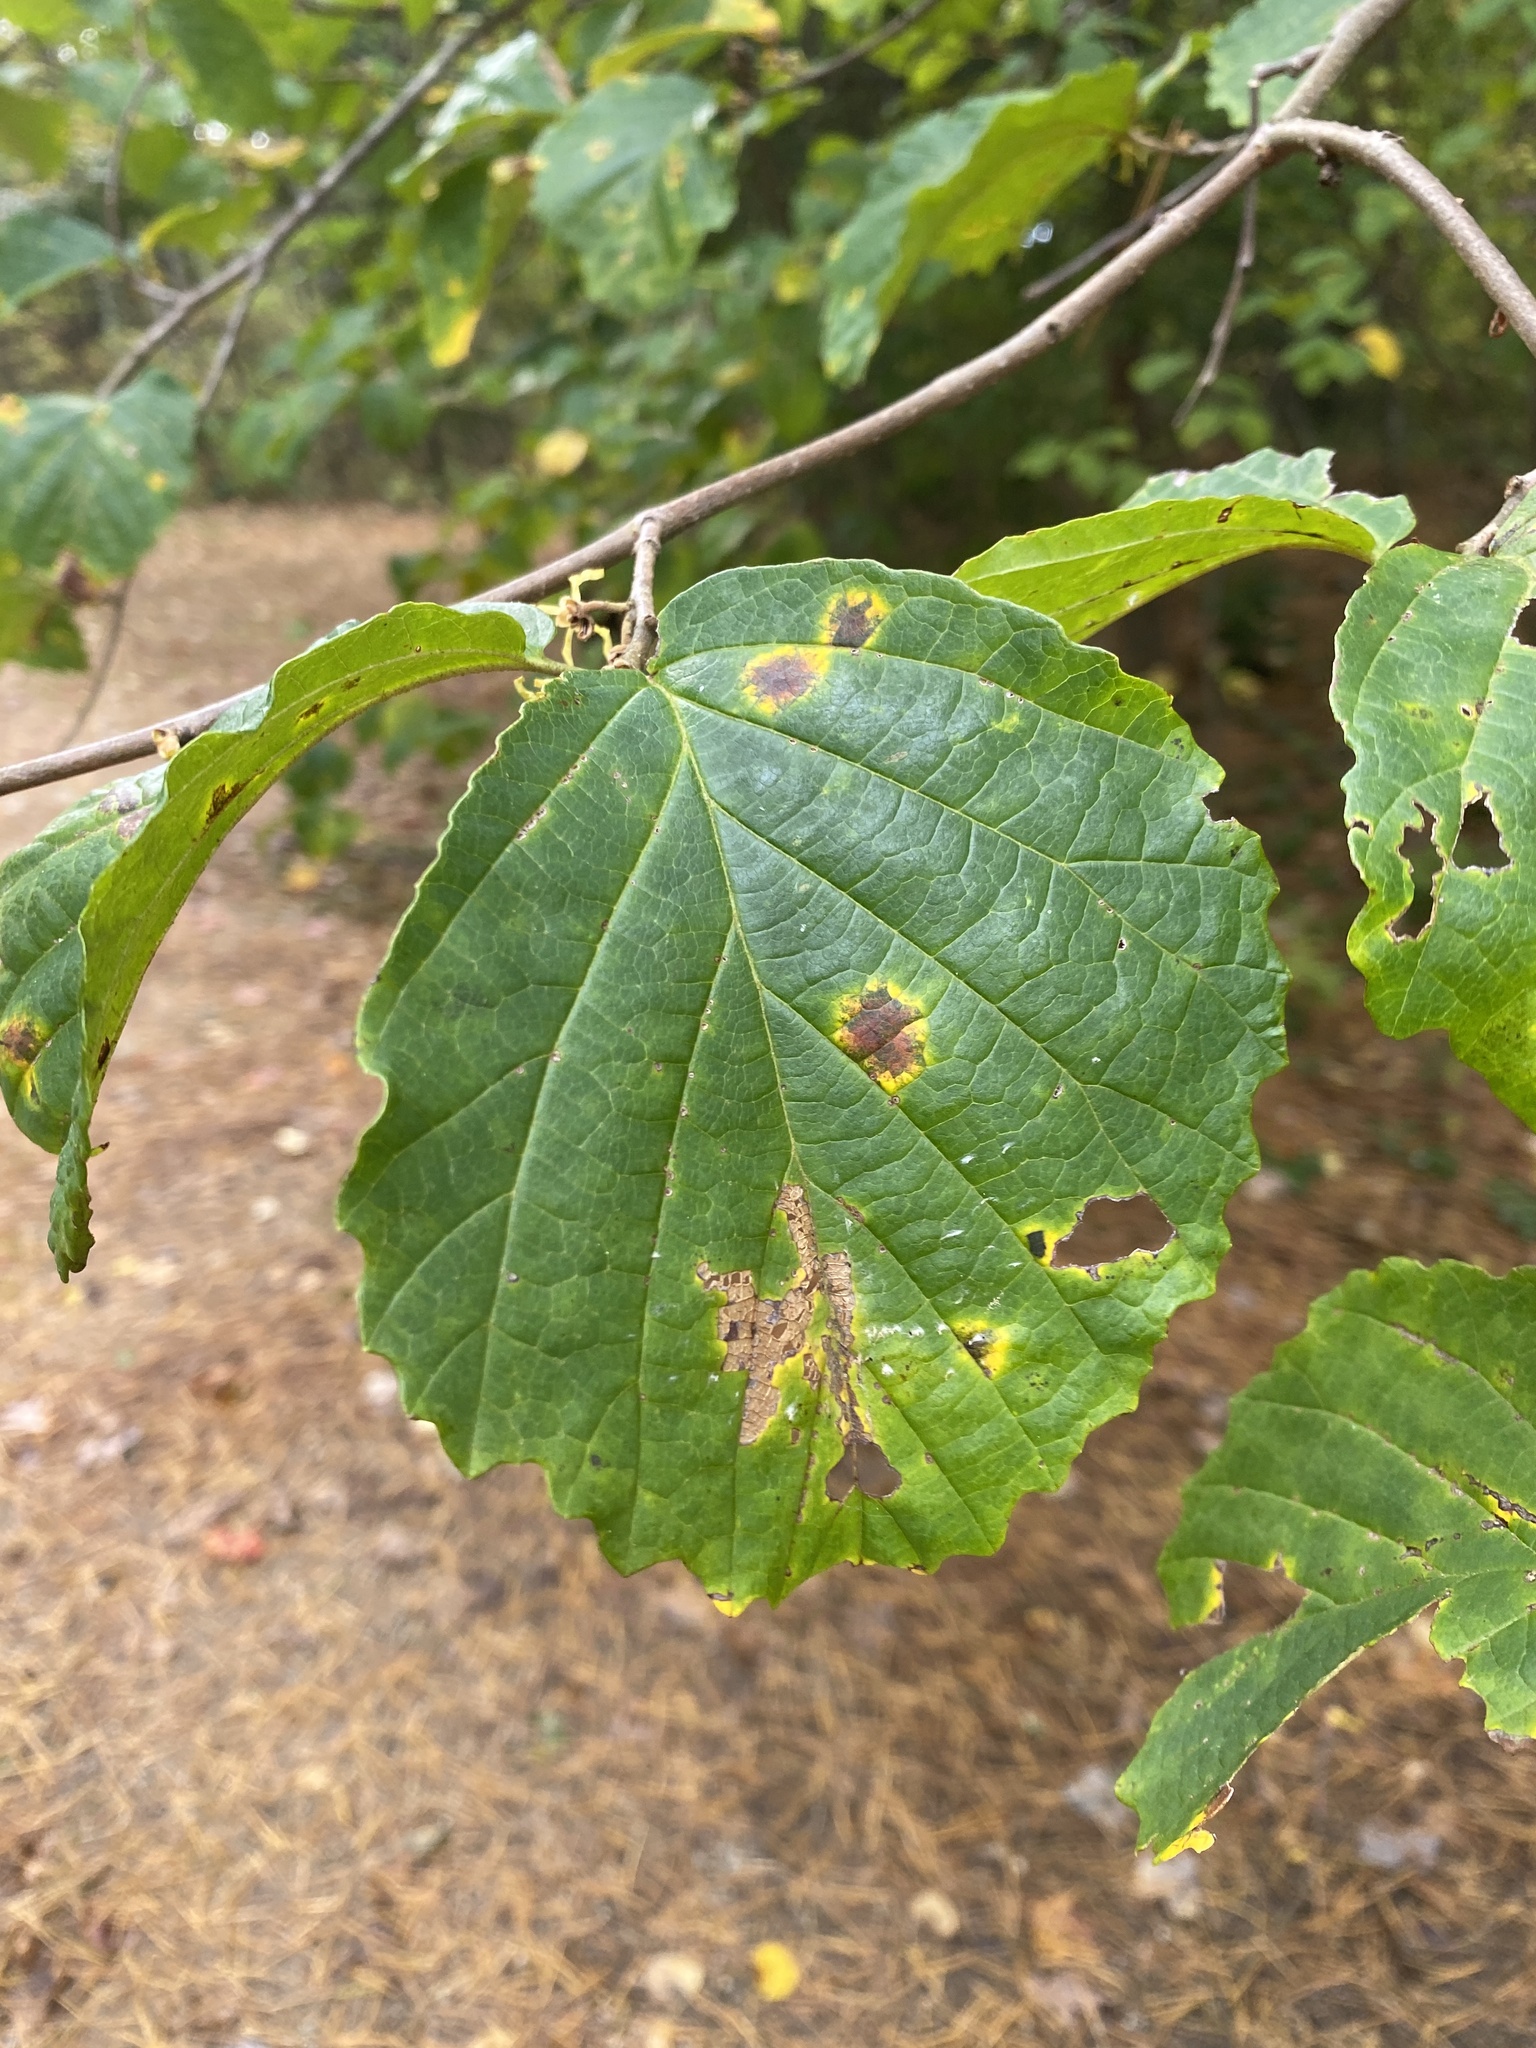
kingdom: Plantae
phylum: Tracheophyta
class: Magnoliopsida
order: Saxifragales
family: Hamamelidaceae
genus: Hamamelis
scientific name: Hamamelis virginiana
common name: Witch-hazel
